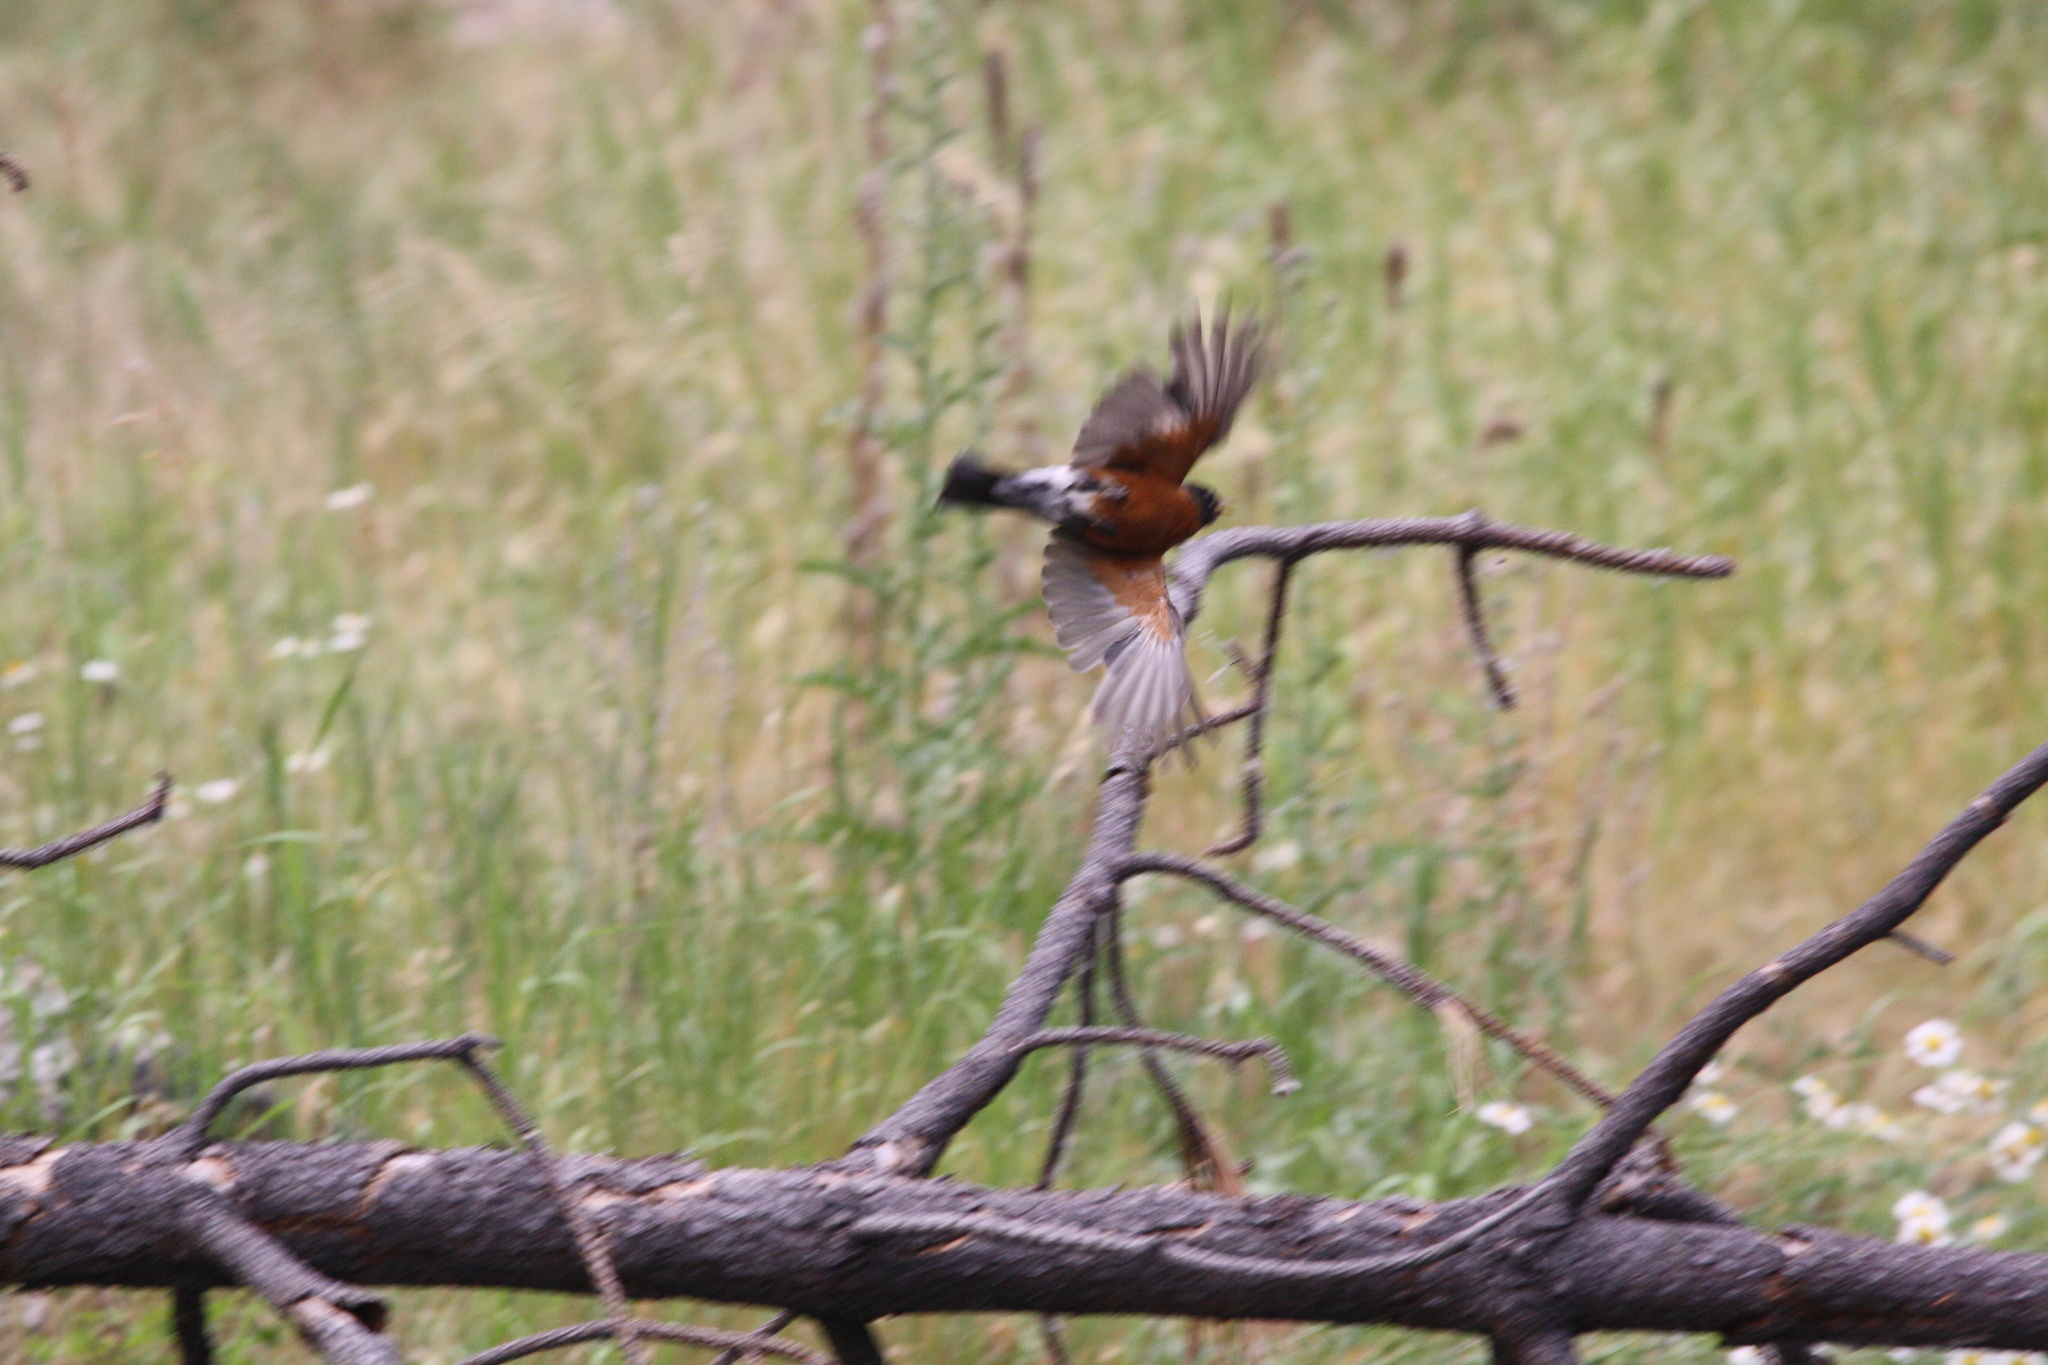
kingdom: Animalia
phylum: Chordata
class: Aves
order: Passeriformes
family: Turdidae
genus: Turdus
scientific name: Turdus migratorius
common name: American robin
